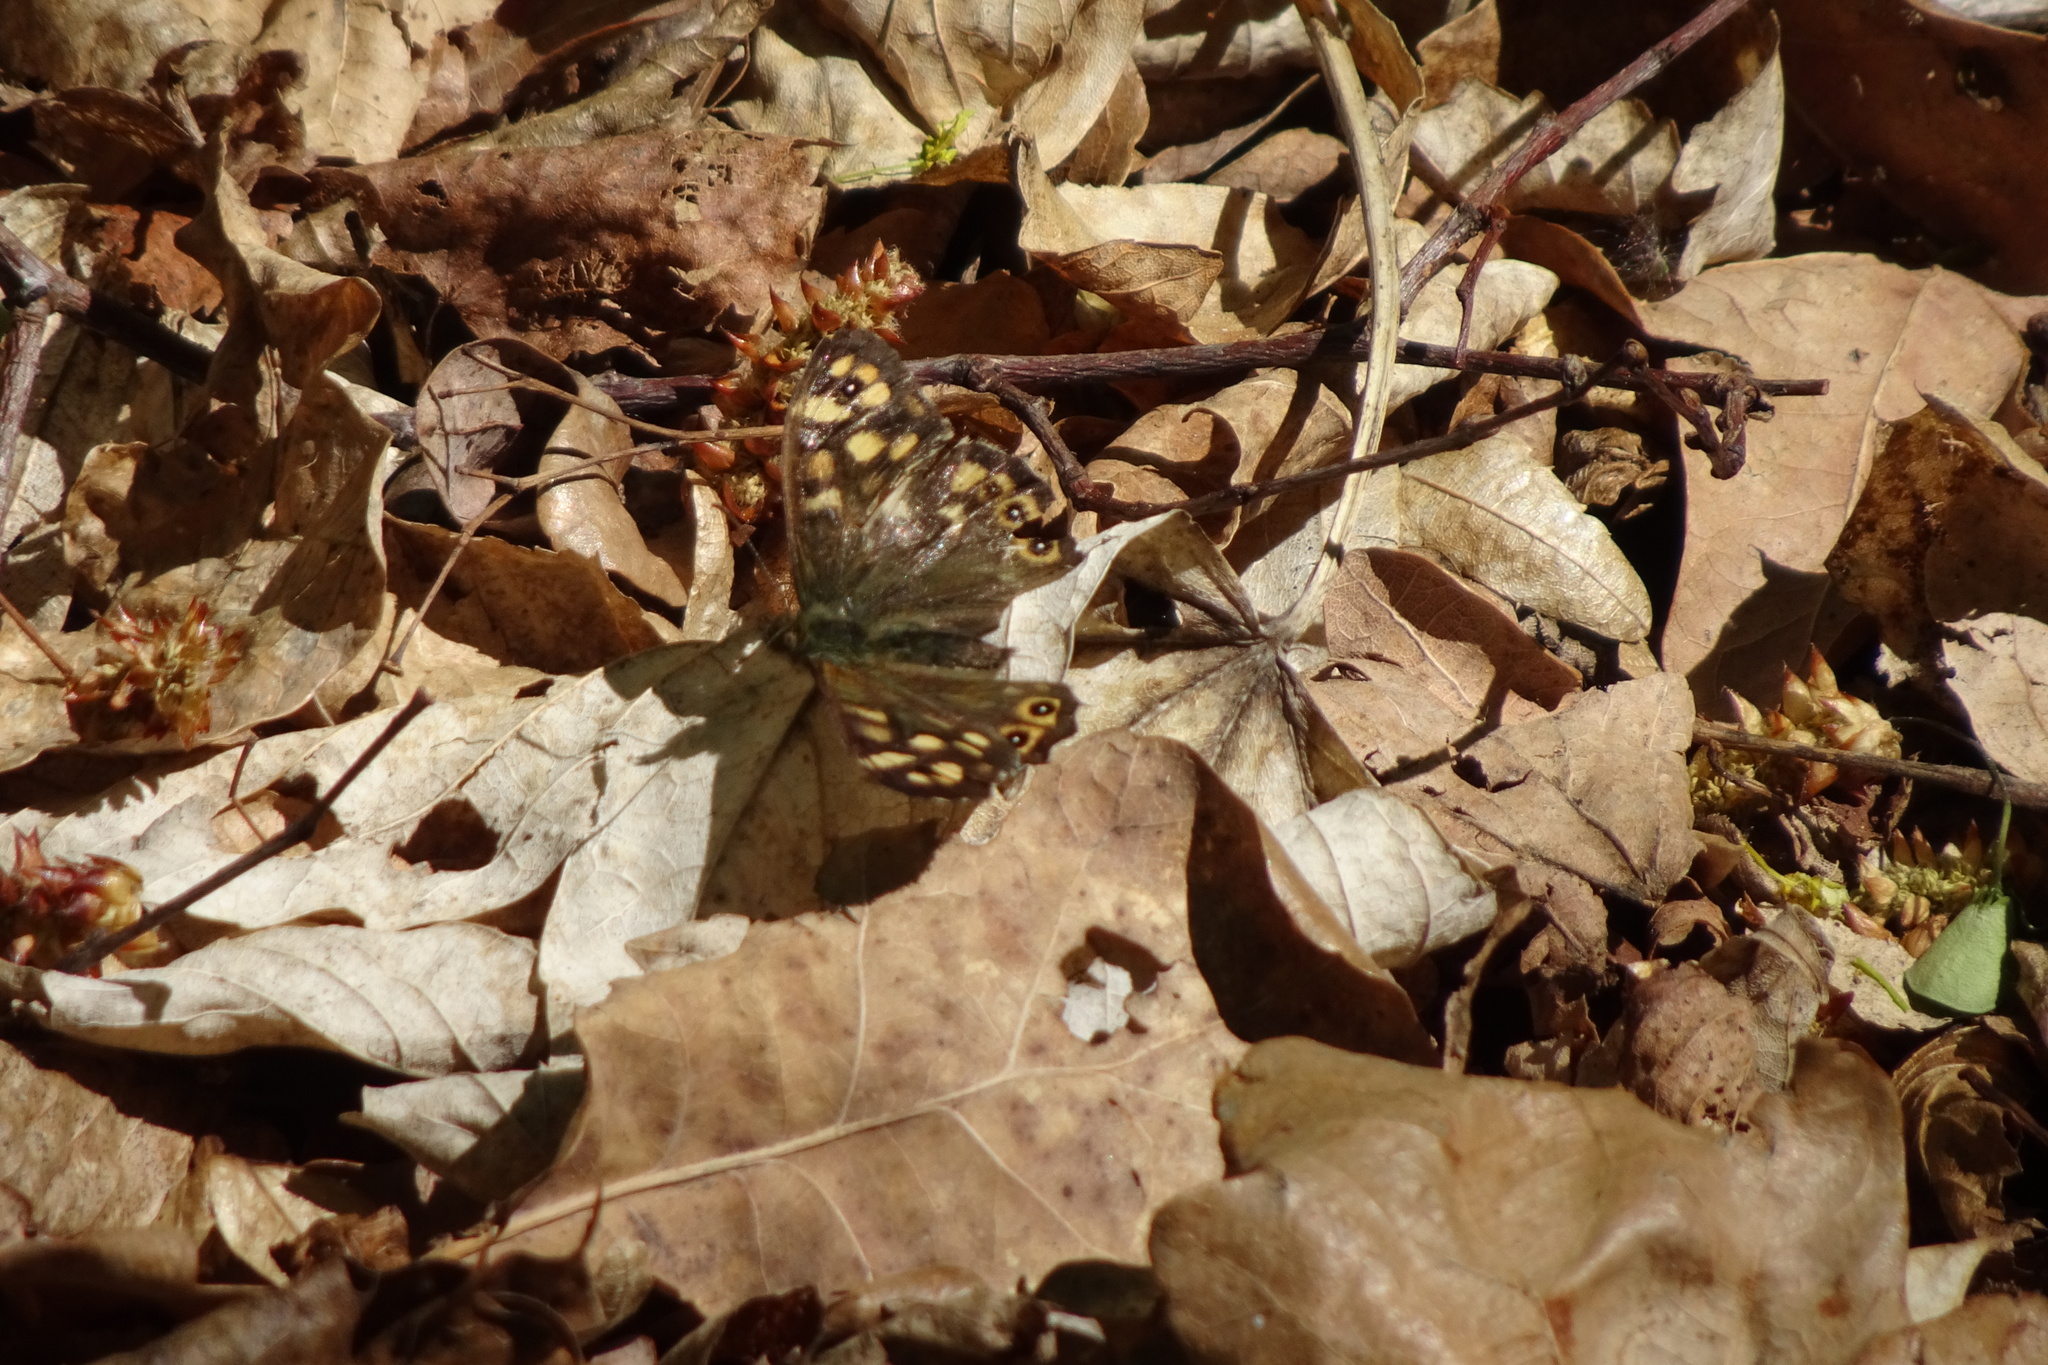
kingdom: Animalia
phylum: Arthropoda
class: Insecta
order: Lepidoptera
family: Nymphalidae
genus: Pararge
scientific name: Pararge aegeria
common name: Speckled wood
